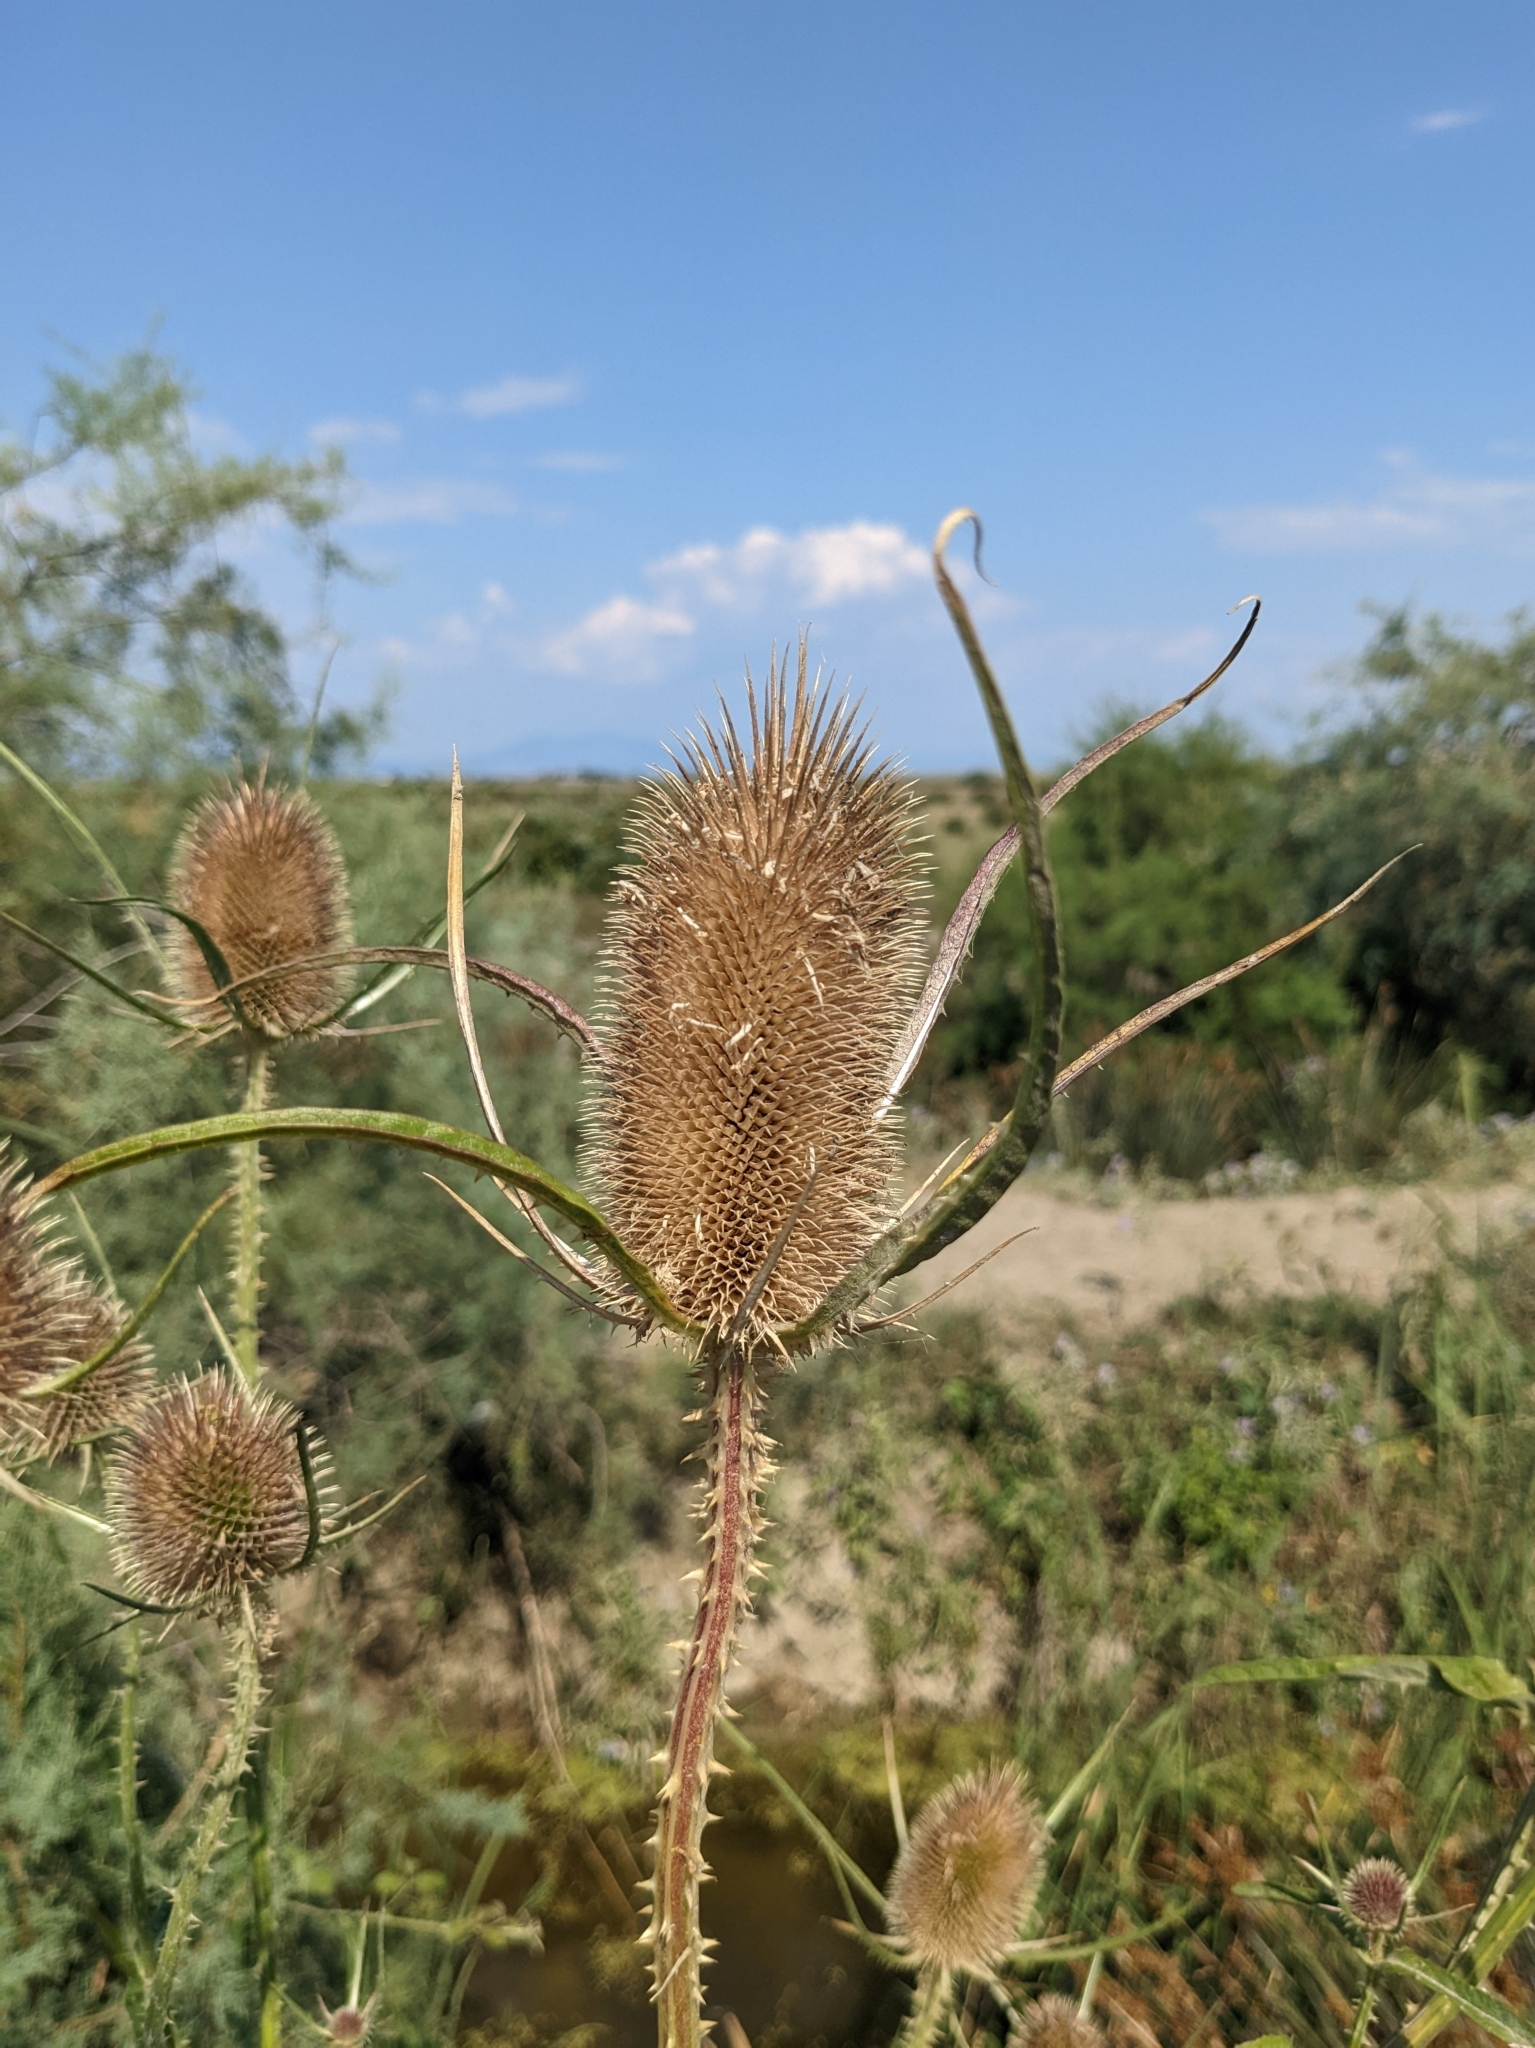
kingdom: Plantae
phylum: Tracheophyta
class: Magnoliopsida
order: Dipsacales
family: Caprifoliaceae
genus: Dipsacus
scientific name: Dipsacus fullonum
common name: Teasel
